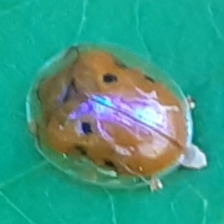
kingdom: Animalia
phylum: Arthropoda
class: Insecta
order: Coleoptera
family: Chrysomelidae
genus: Charidotella
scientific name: Charidotella sexpunctata
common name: Golden tortoise beetle
